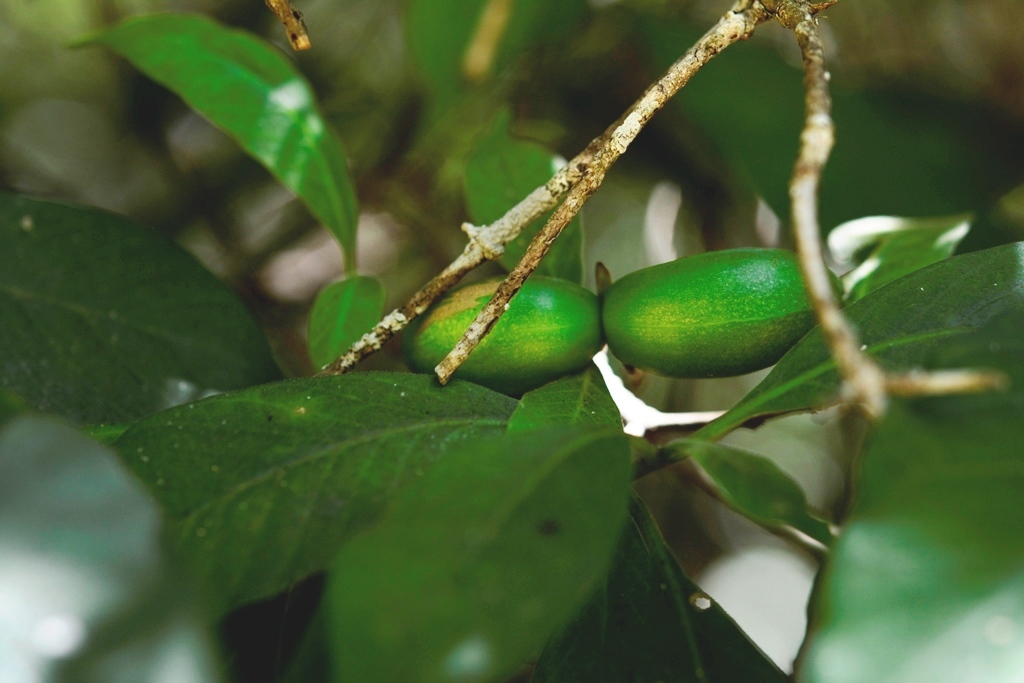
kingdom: Plantae
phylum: Tracheophyta
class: Magnoliopsida
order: Gentianales
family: Apocynaceae
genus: Tabernaemontana
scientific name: Tabernaemontana hannae
